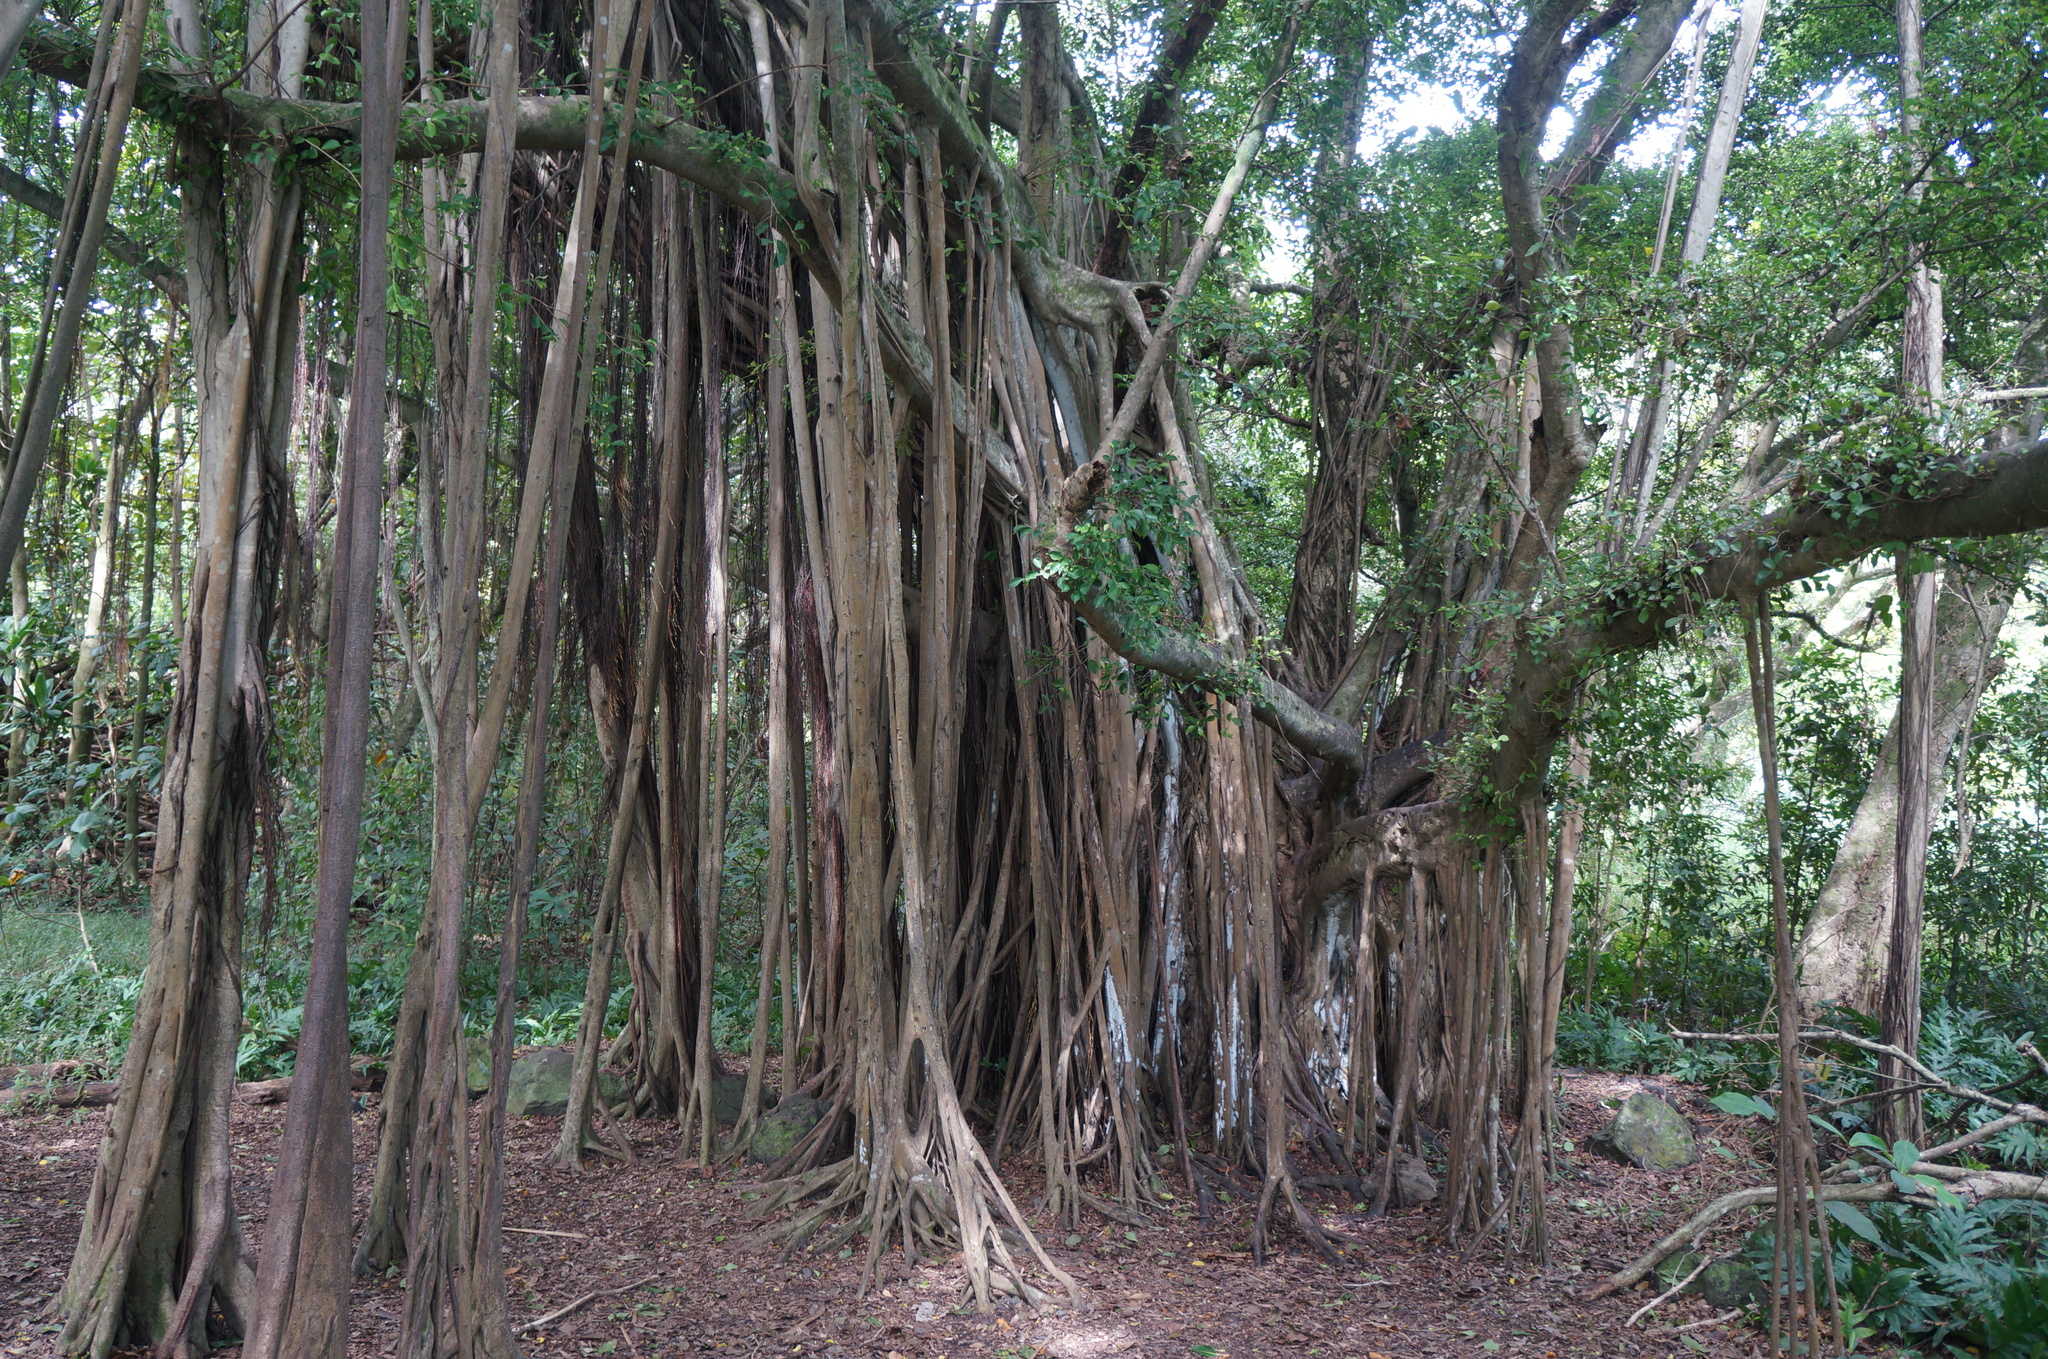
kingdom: Plantae
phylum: Tracheophyta
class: Magnoliopsida
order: Rosales
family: Moraceae
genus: Ficus
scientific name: Ficus microcarpa
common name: Chinese banyan
